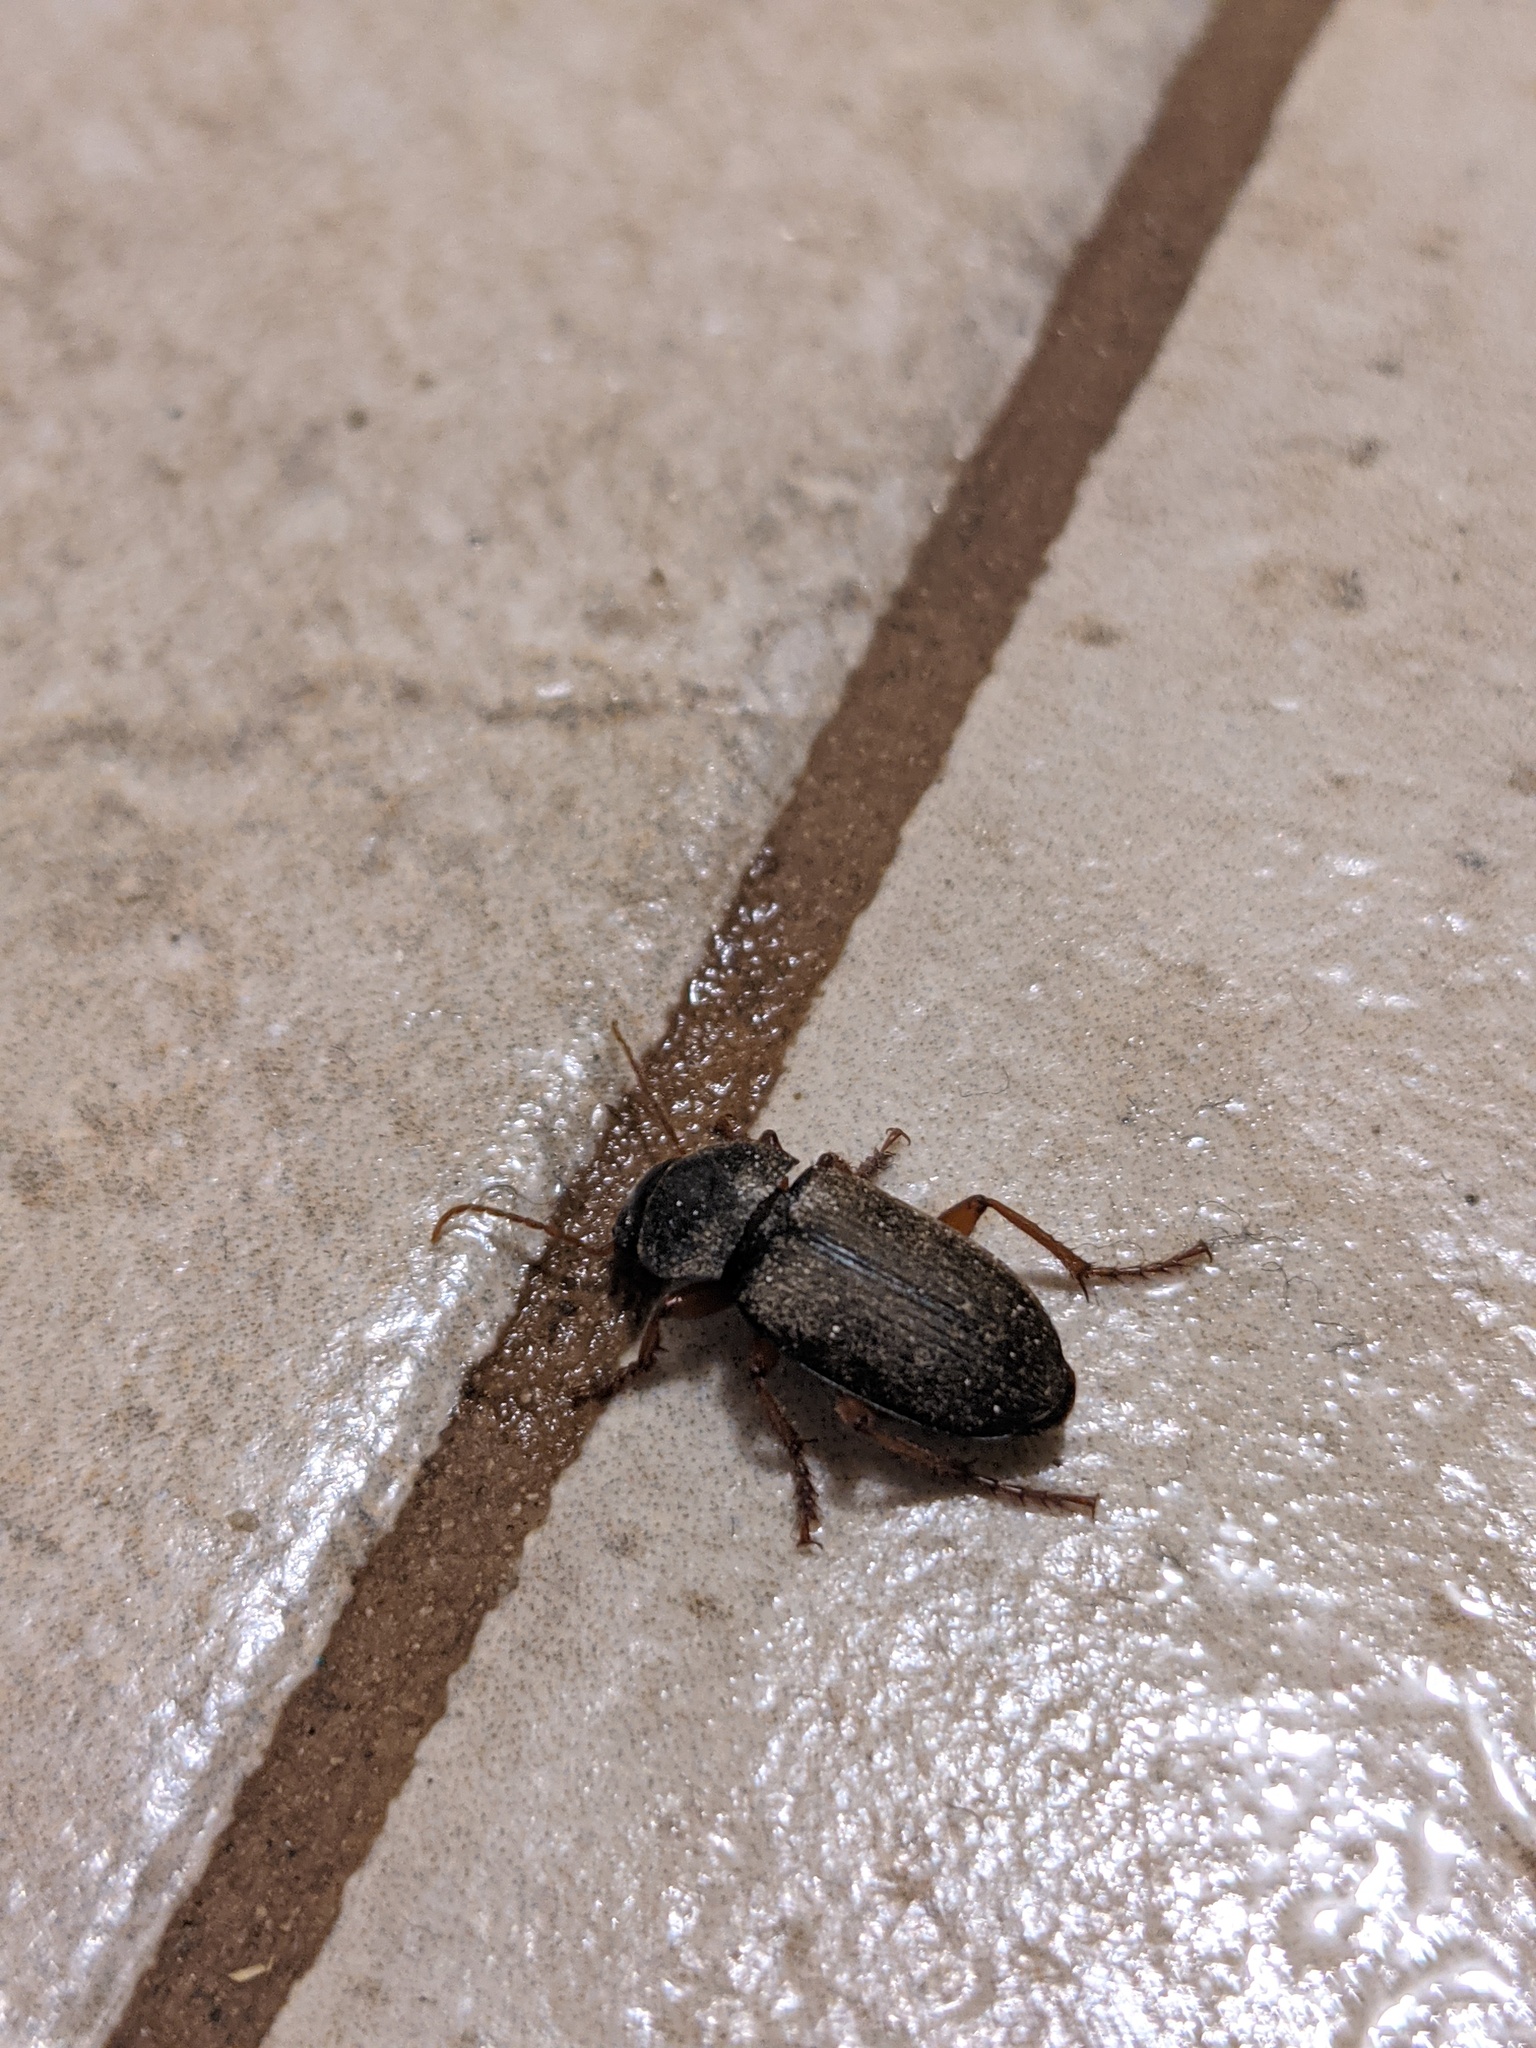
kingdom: Animalia
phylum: Arthropoda
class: Insecta
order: Coleoptera
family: Carabidae
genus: Harpalus
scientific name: Harpalus rufipes
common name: Strawberry harp ground beetle
